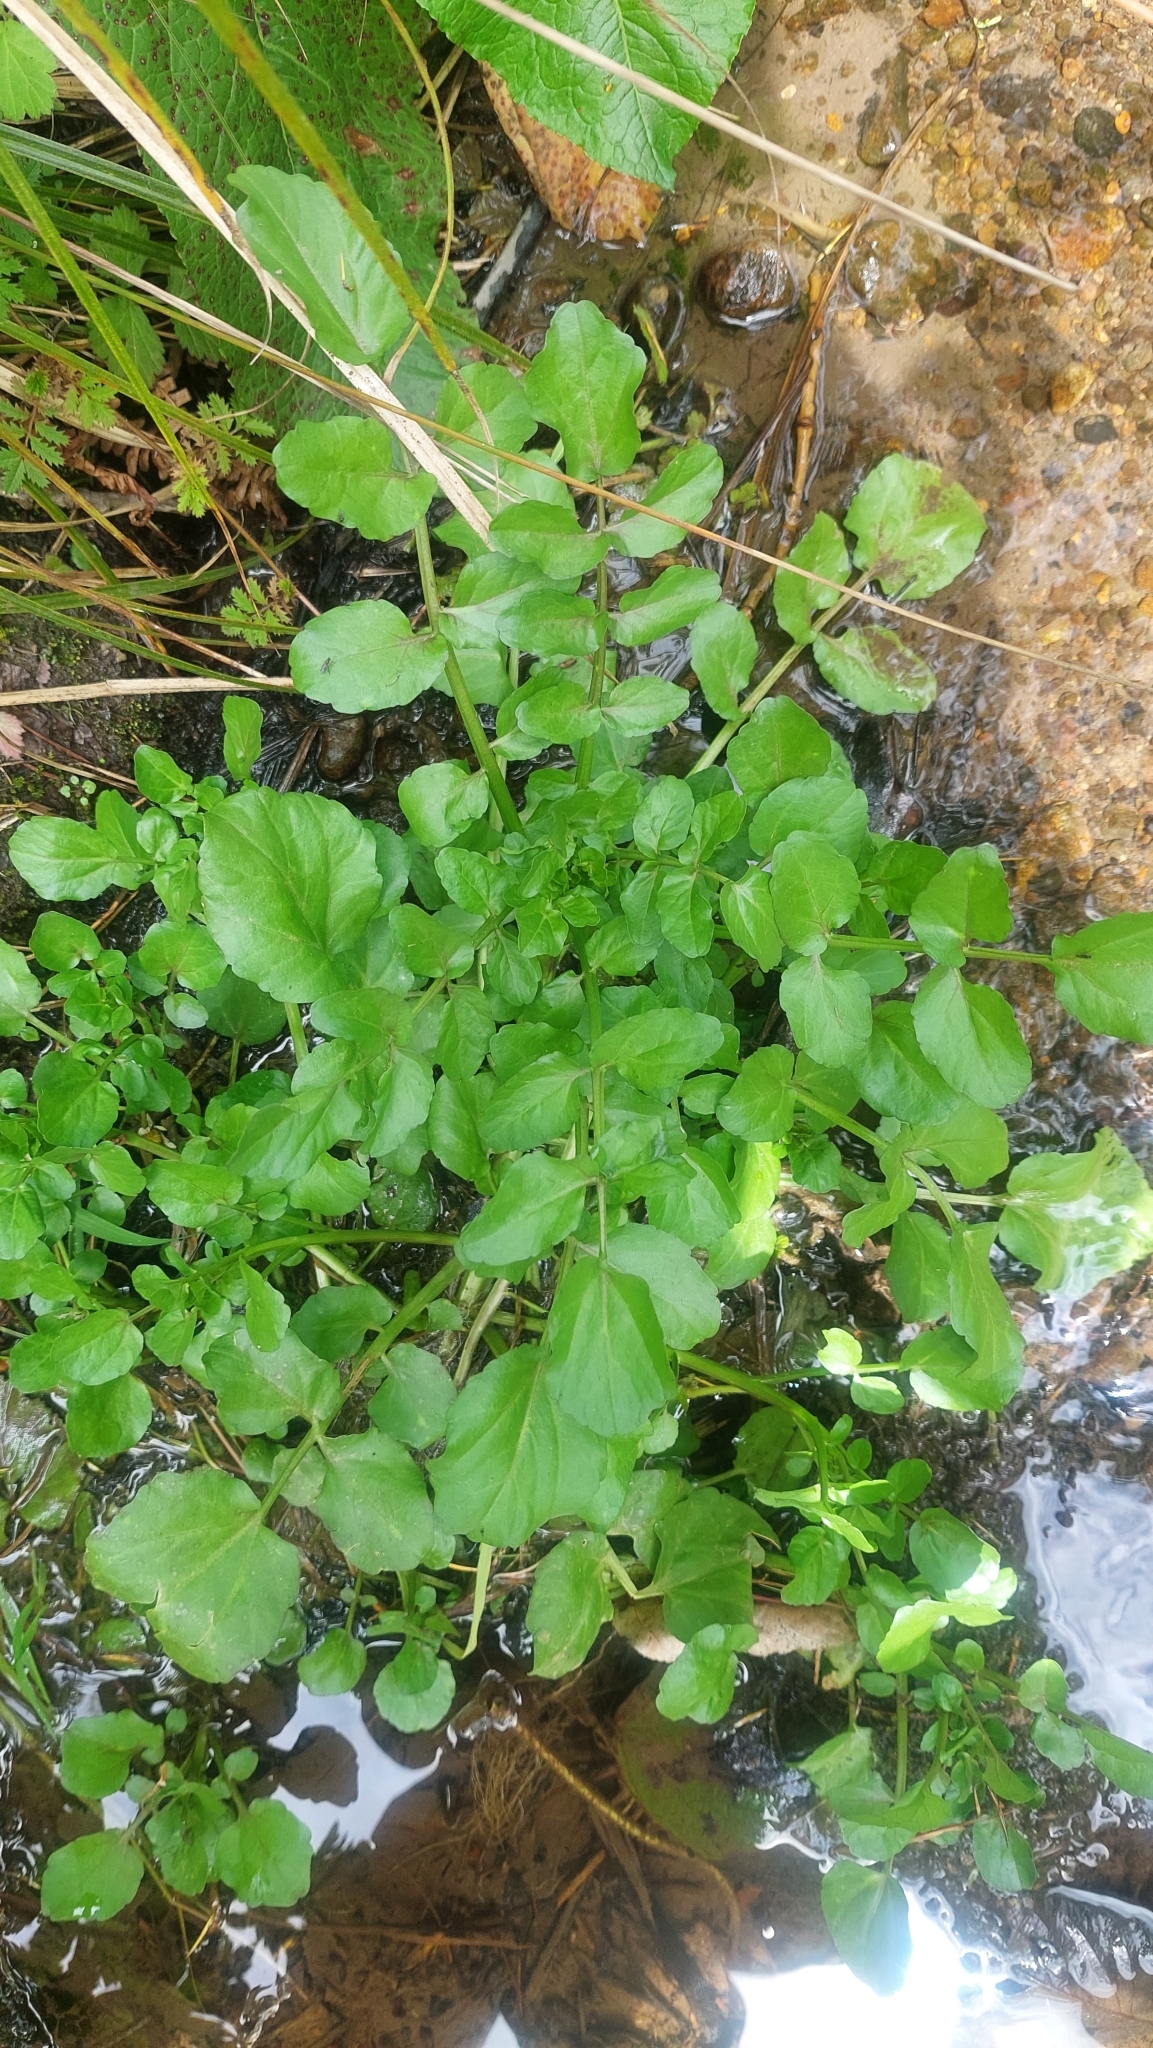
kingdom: Plantae
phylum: Tracheophyta
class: Magnoliopsida
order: Brassicales
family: Brassicaceae
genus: Nasturtium
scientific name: Nasturtium officinale
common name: Watercress
